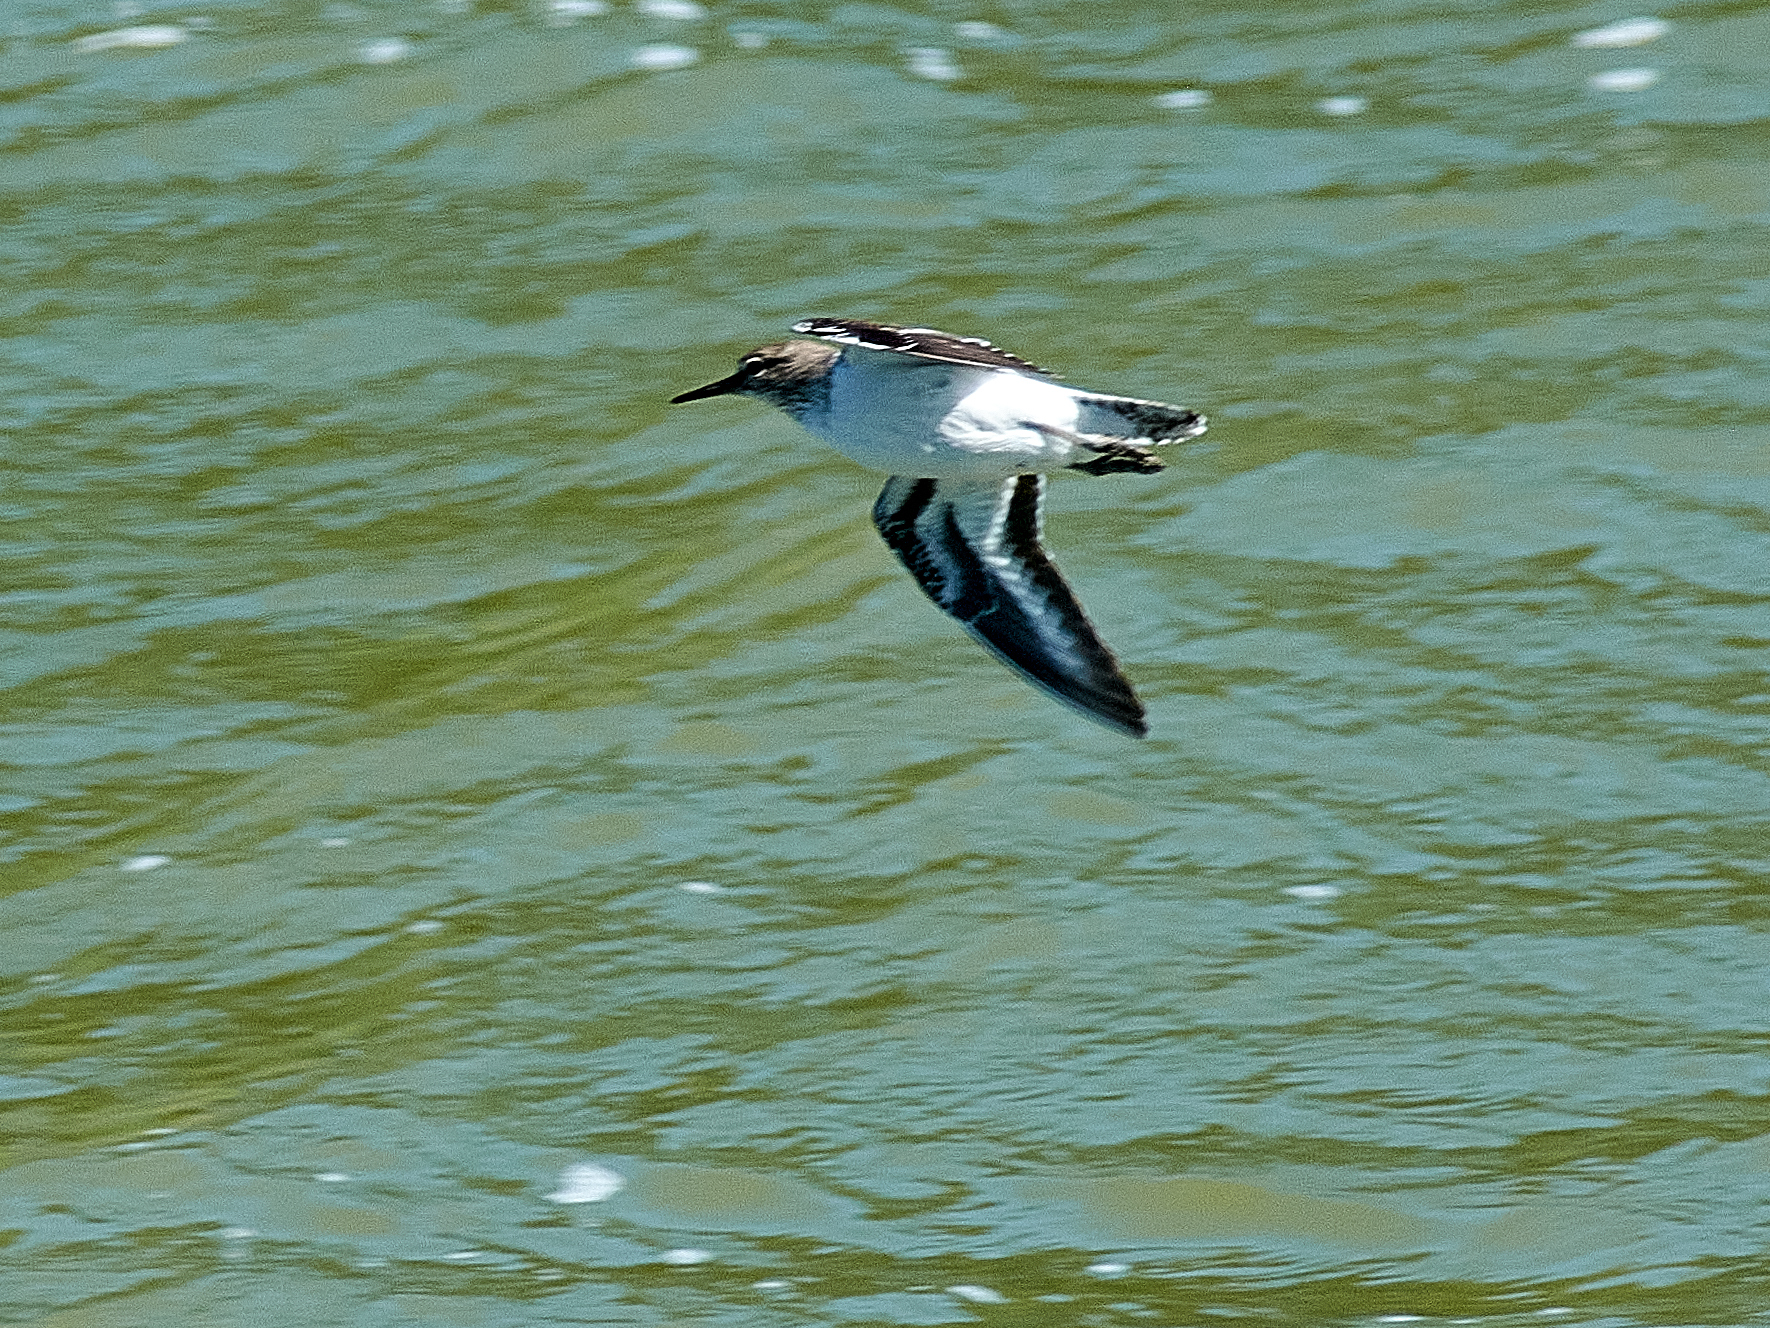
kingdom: Animalia
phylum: Chordata
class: Aves
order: Charadriiformes
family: Scolopacidae
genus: Actitis
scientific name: Actitis hypoleucos
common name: Common sandpiper
